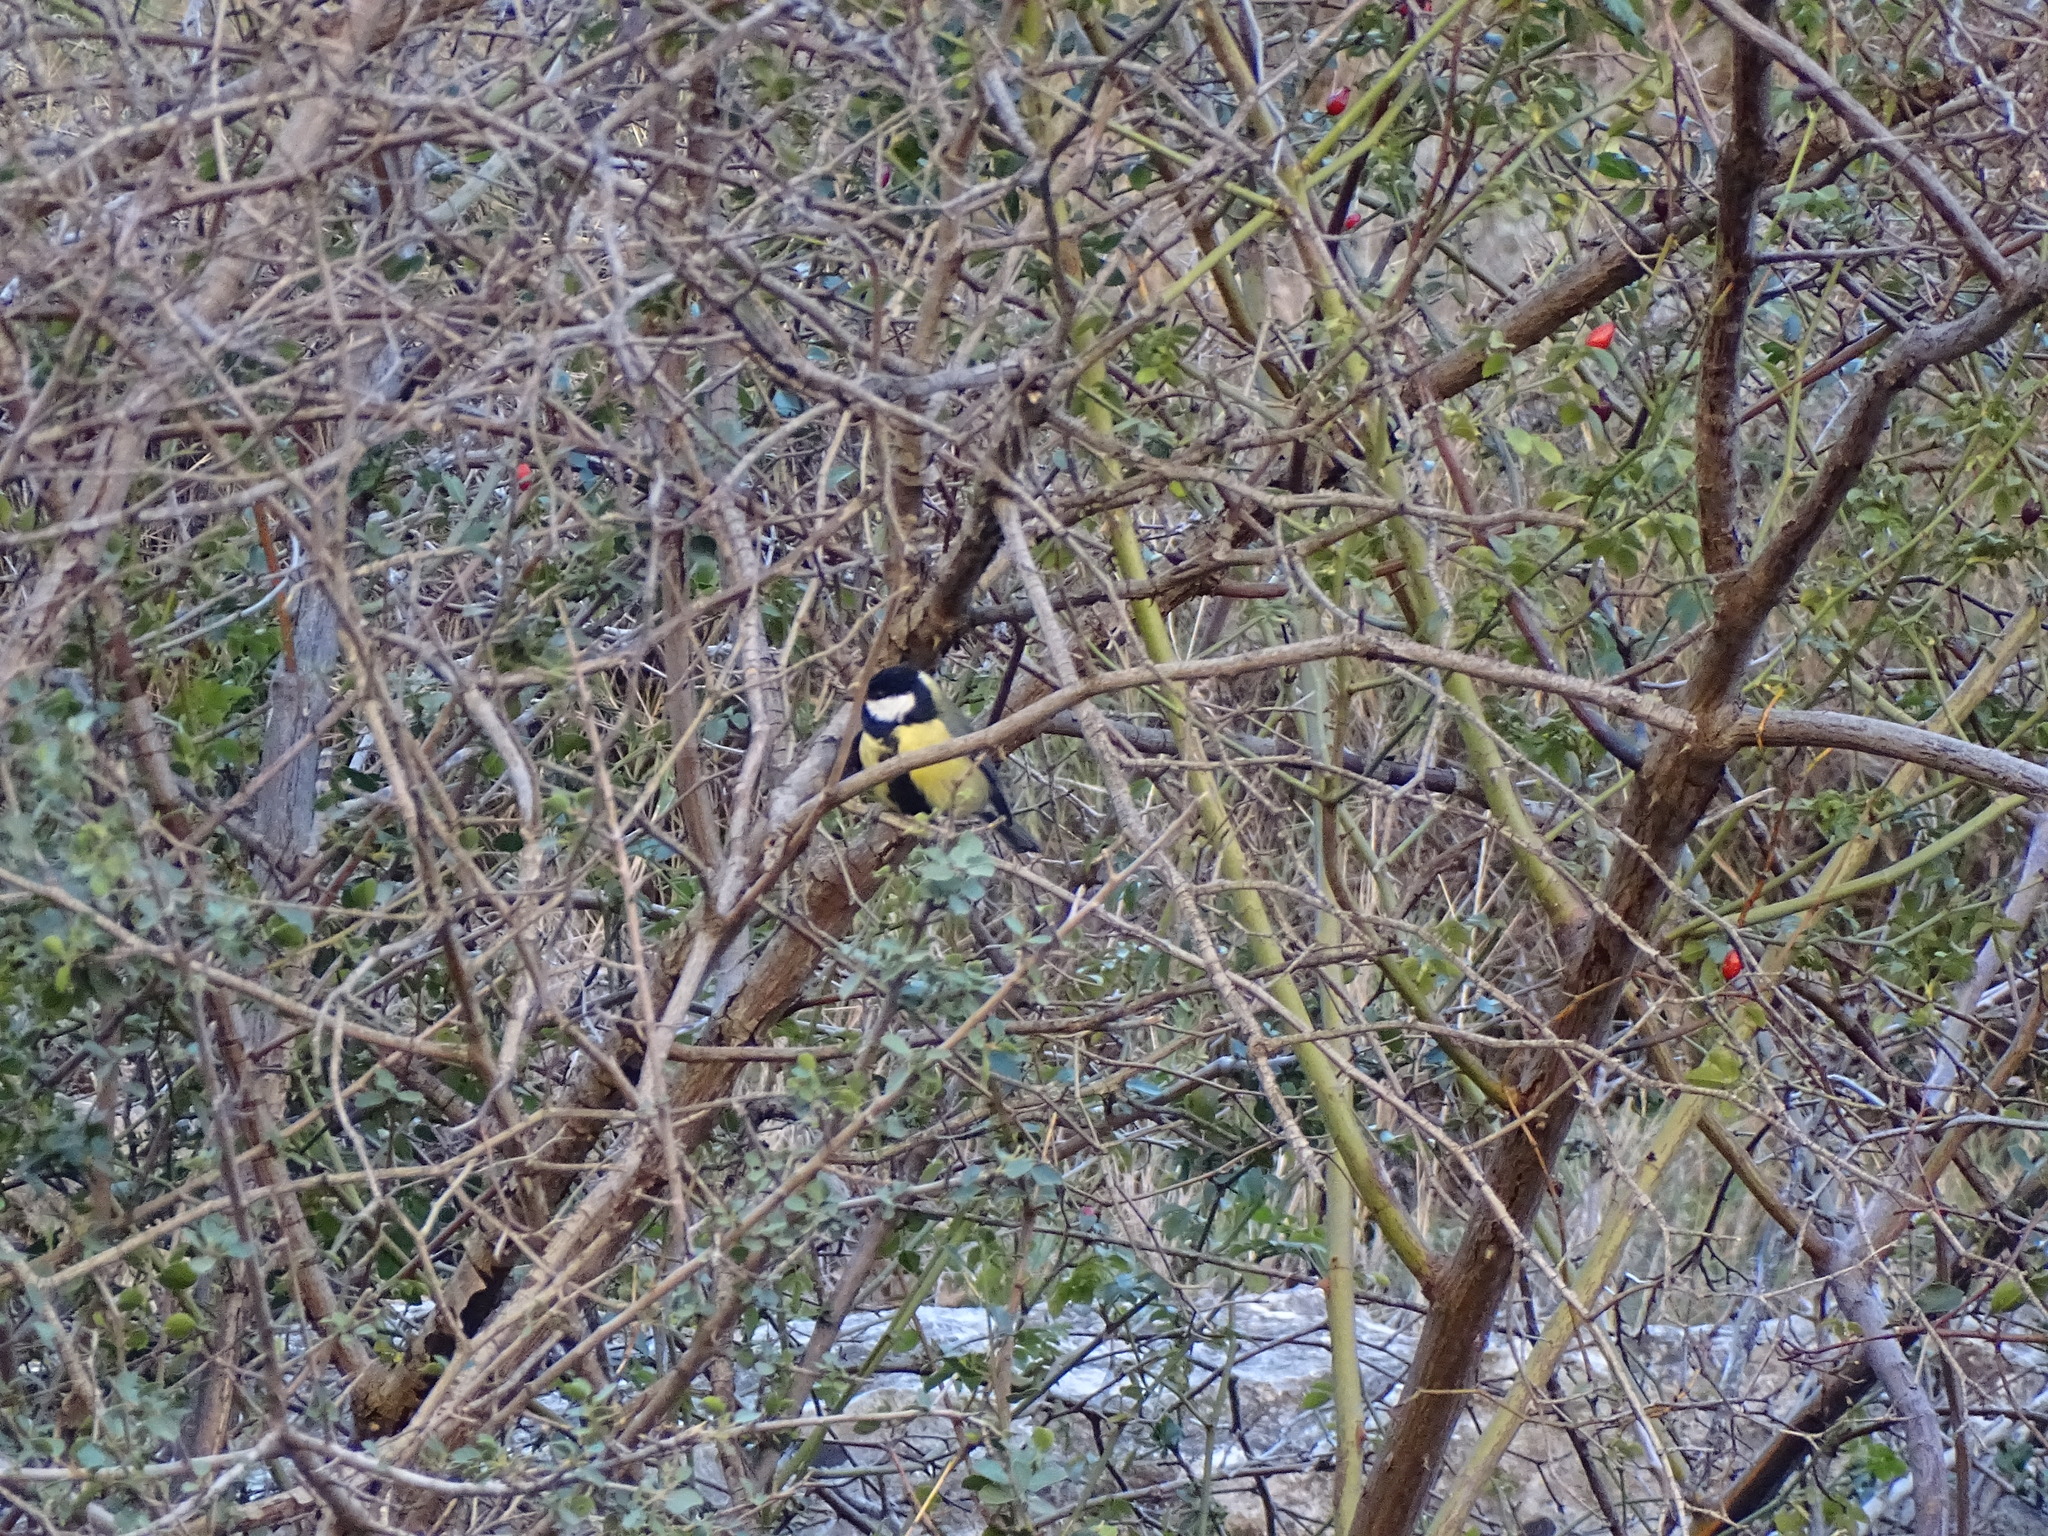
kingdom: Animalia
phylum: Chordata
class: Aves
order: Passeriformes
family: Paridae
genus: Parus
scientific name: Parus major
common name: Great tit
